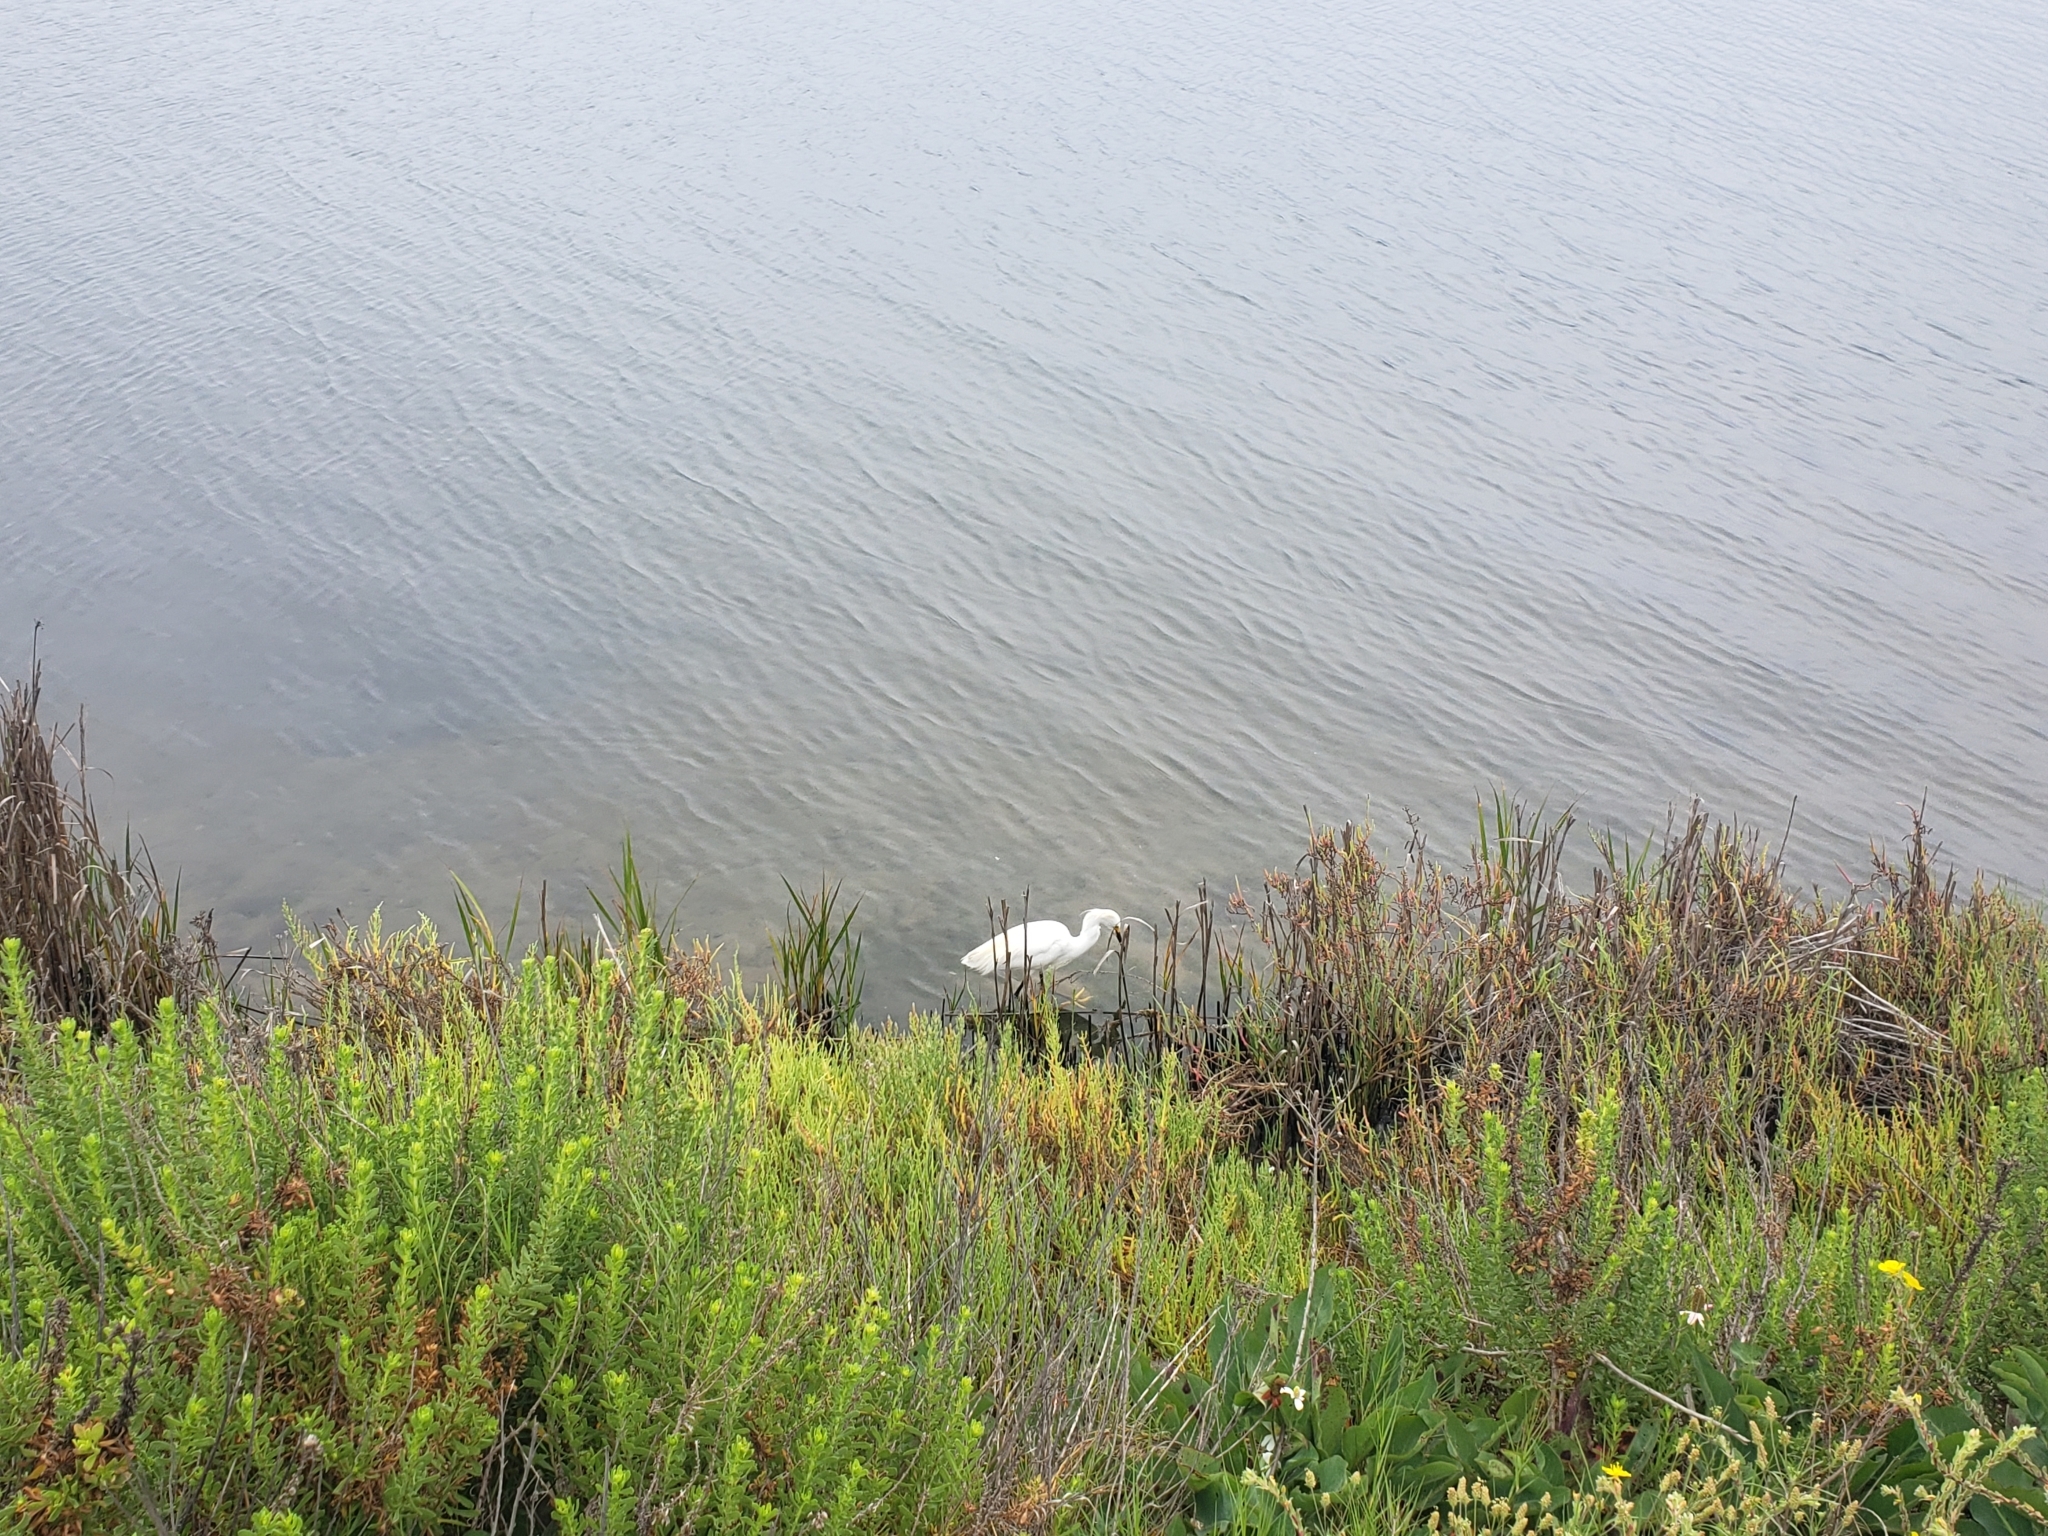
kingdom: Animalia
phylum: Chordata
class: Aves
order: Pelecaniformes
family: Ardeidae
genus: Egretta
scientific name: Egretta thula
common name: Snowy egret
